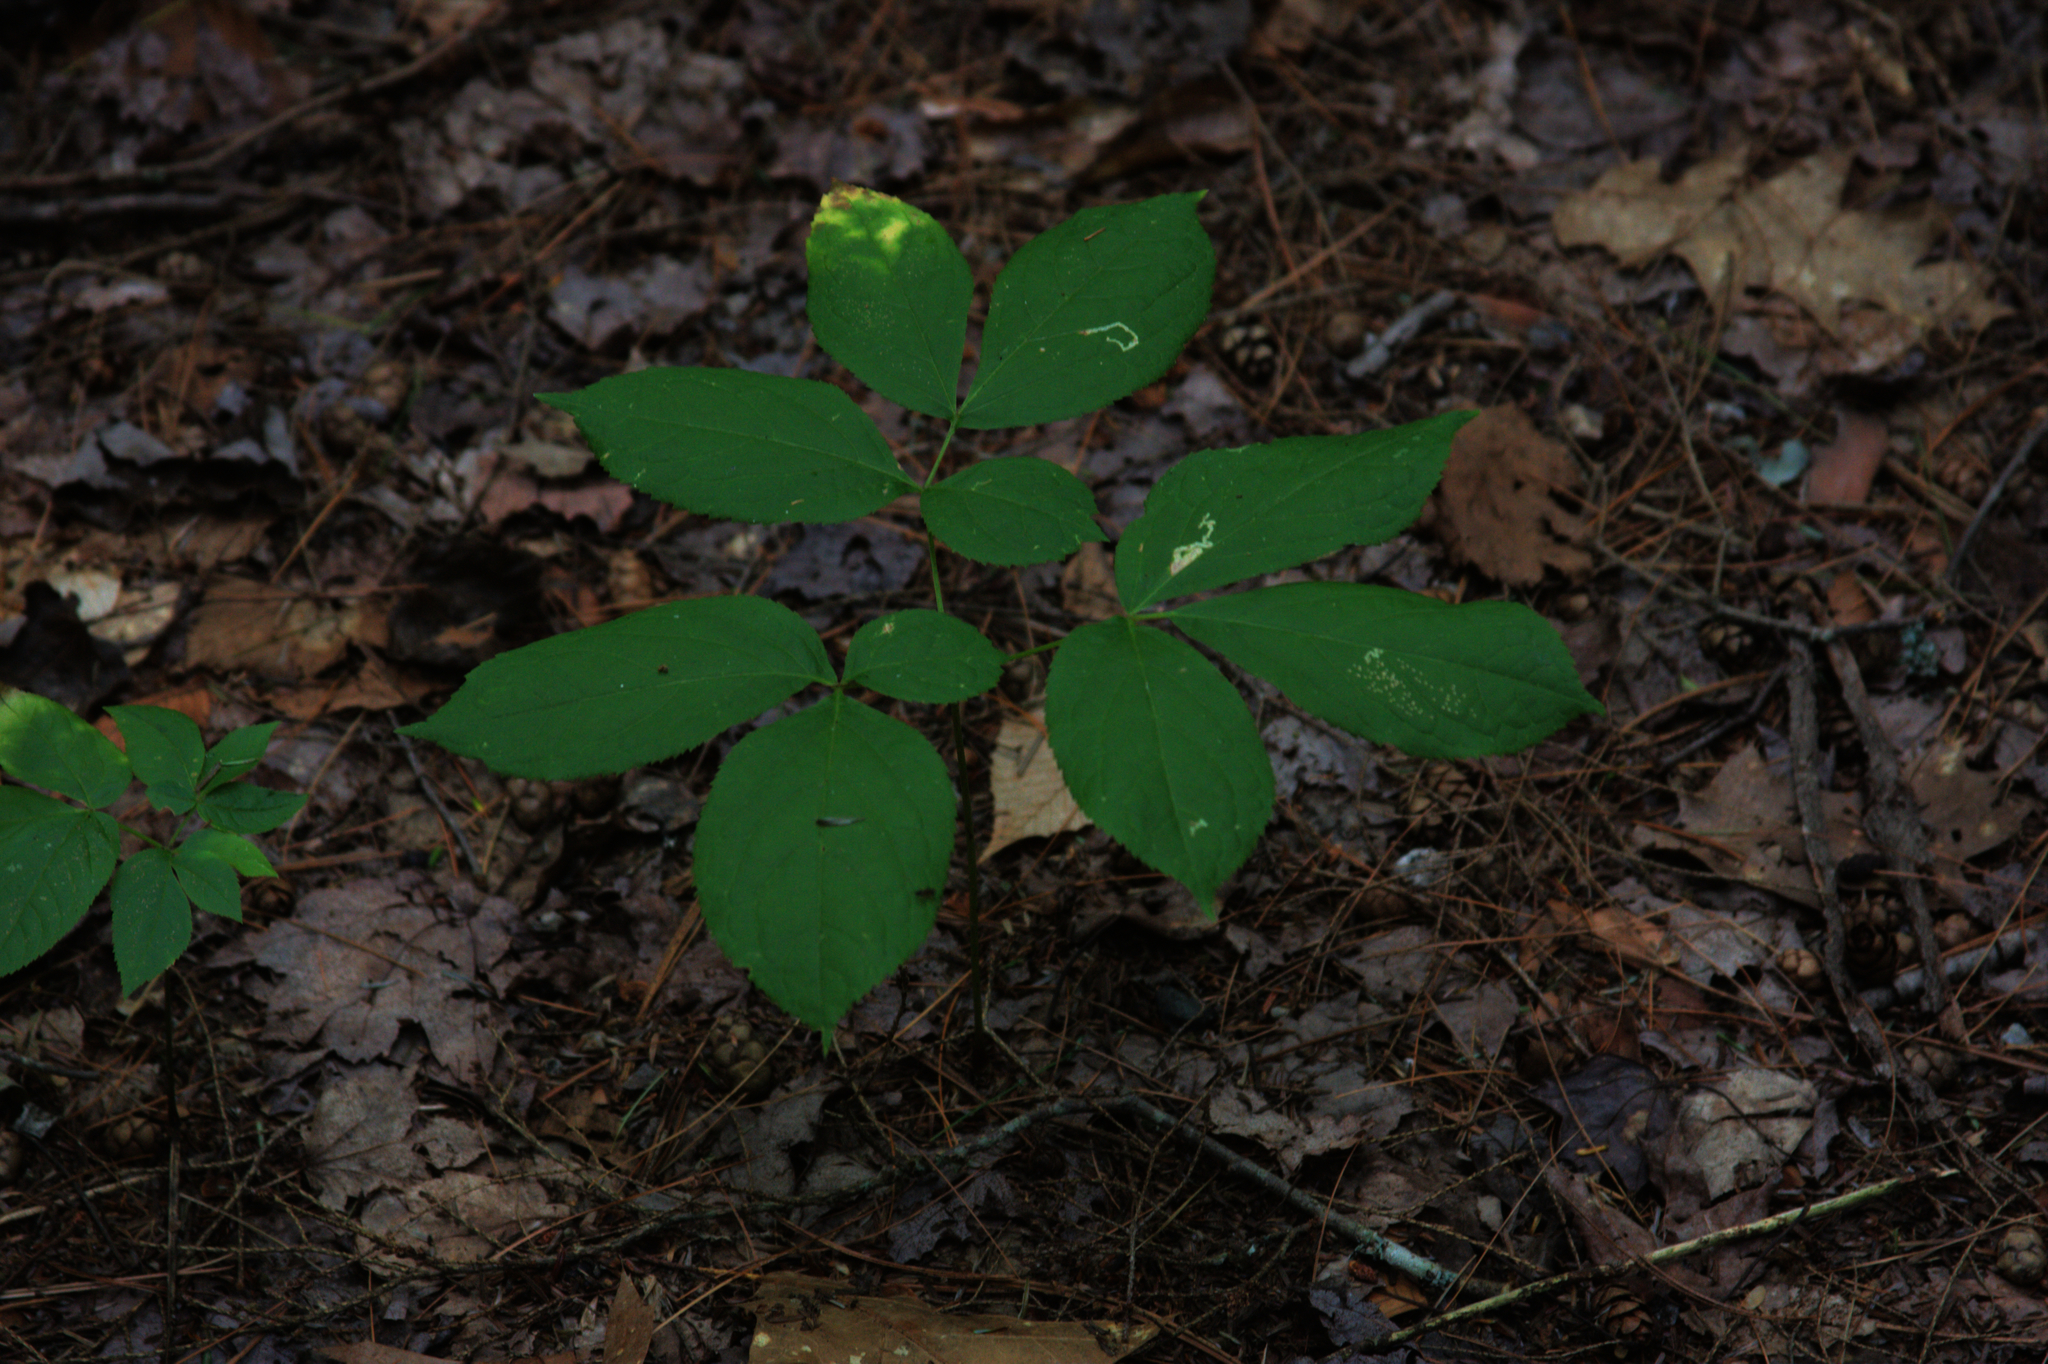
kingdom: Plantae
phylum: Tracheophyta
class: Magnoliopsida
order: Apiales
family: Araliaceae
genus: Aralia
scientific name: Aralia nudicaulis
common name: Wild sarsaparilla
